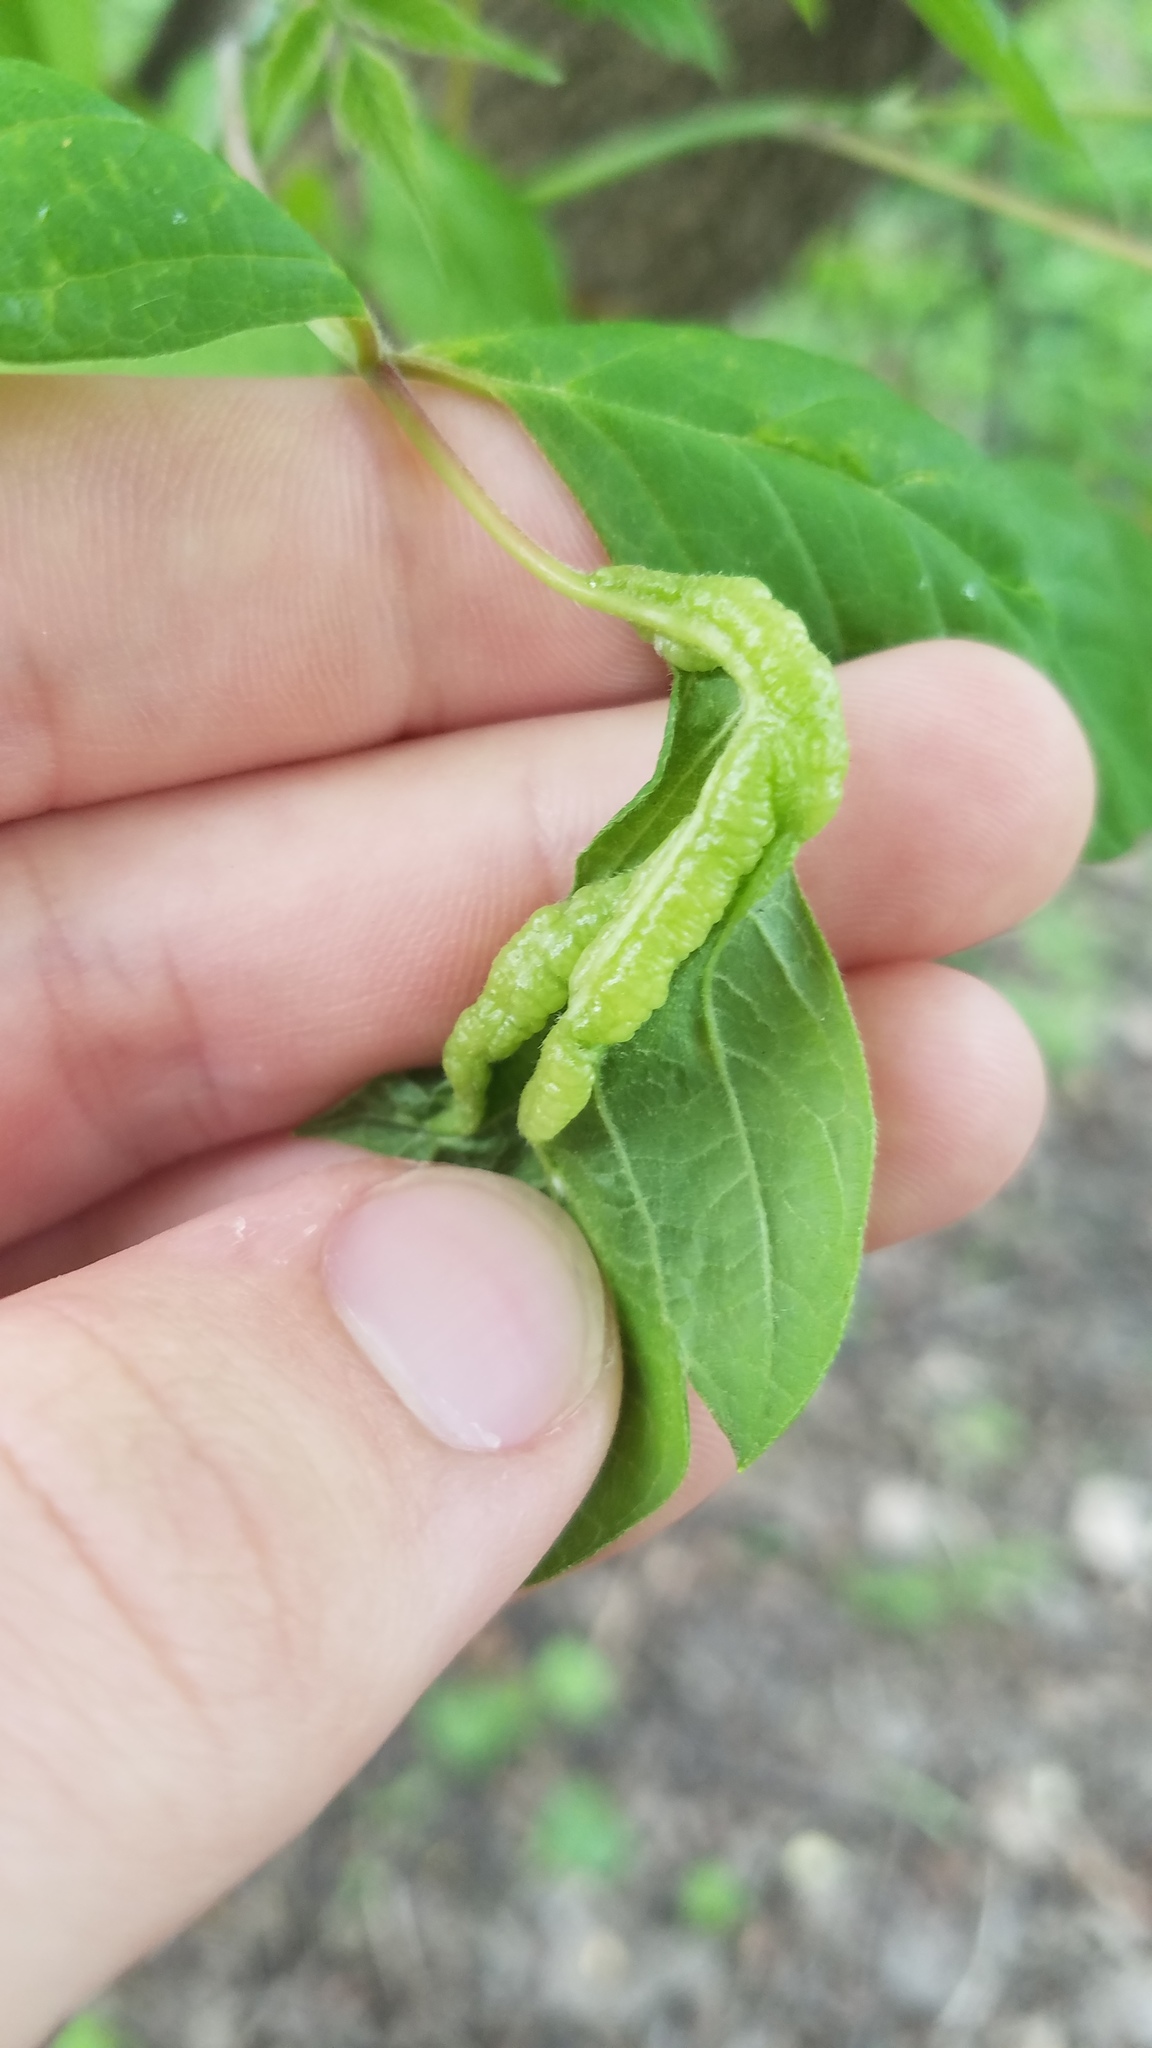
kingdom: Animalia
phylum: Arthropoda
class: Insecta
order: Diptera
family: Cecidomyiidae
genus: Contarinia
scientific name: Contarinia negundinis
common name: Boxelder budgall midge
